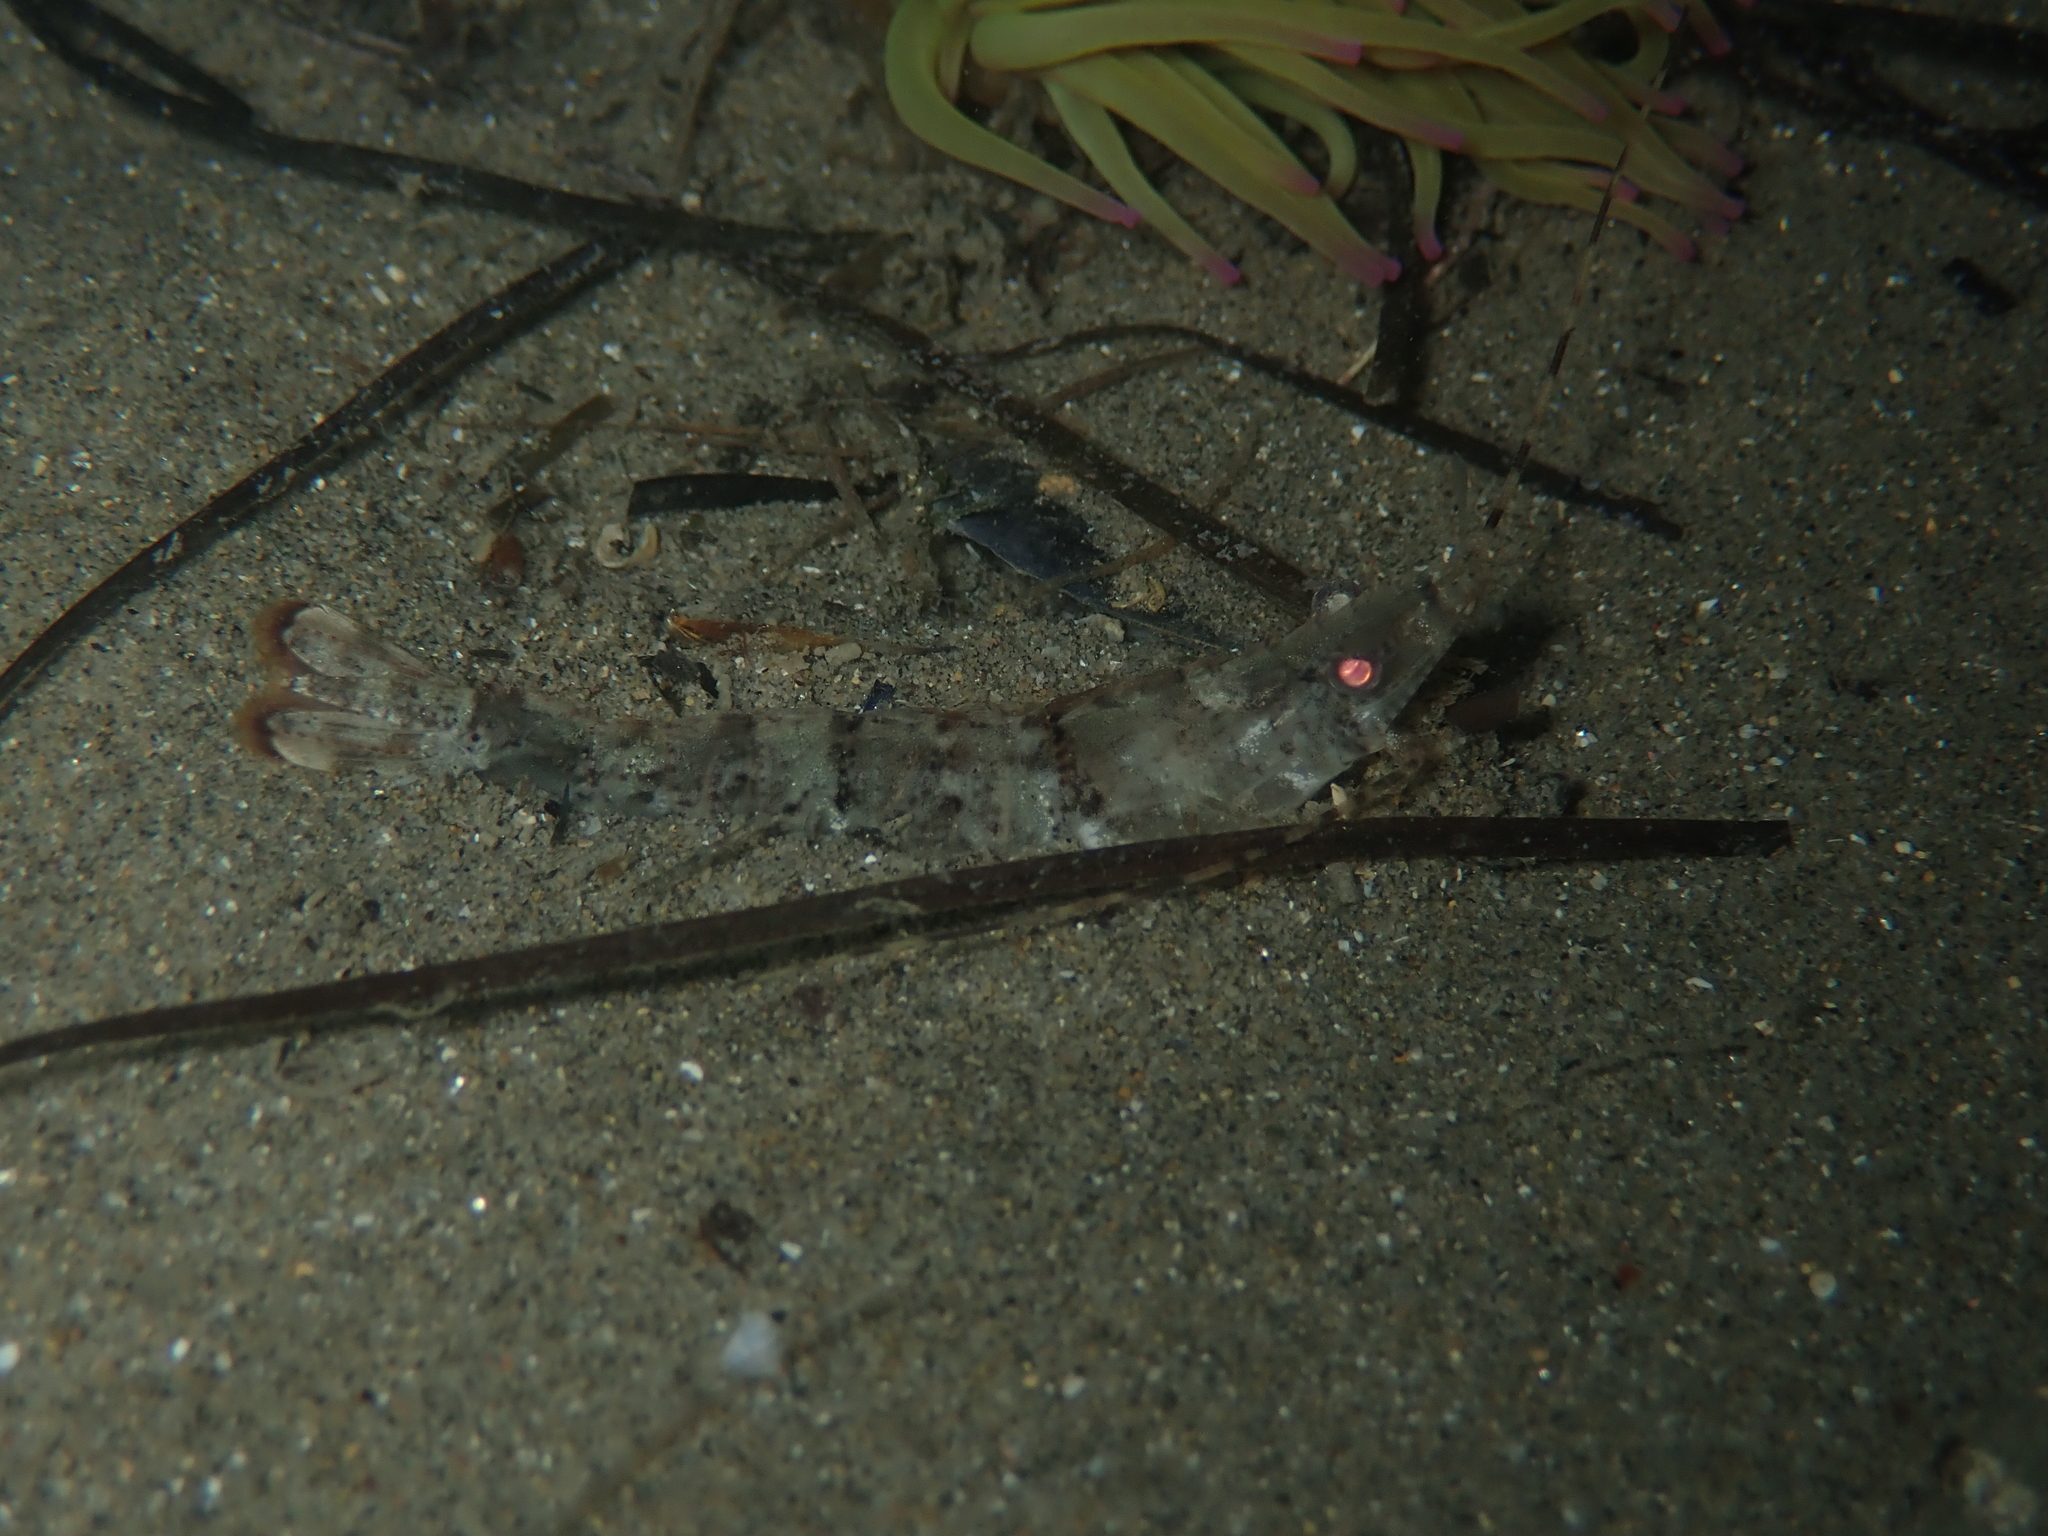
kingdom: Animalia
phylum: Arthropoda
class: Malacostraca
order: Decapoda
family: Sicyoniidae
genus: Sicyonia
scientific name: Sicyonia carinata
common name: Mediterranean rock shrimp
